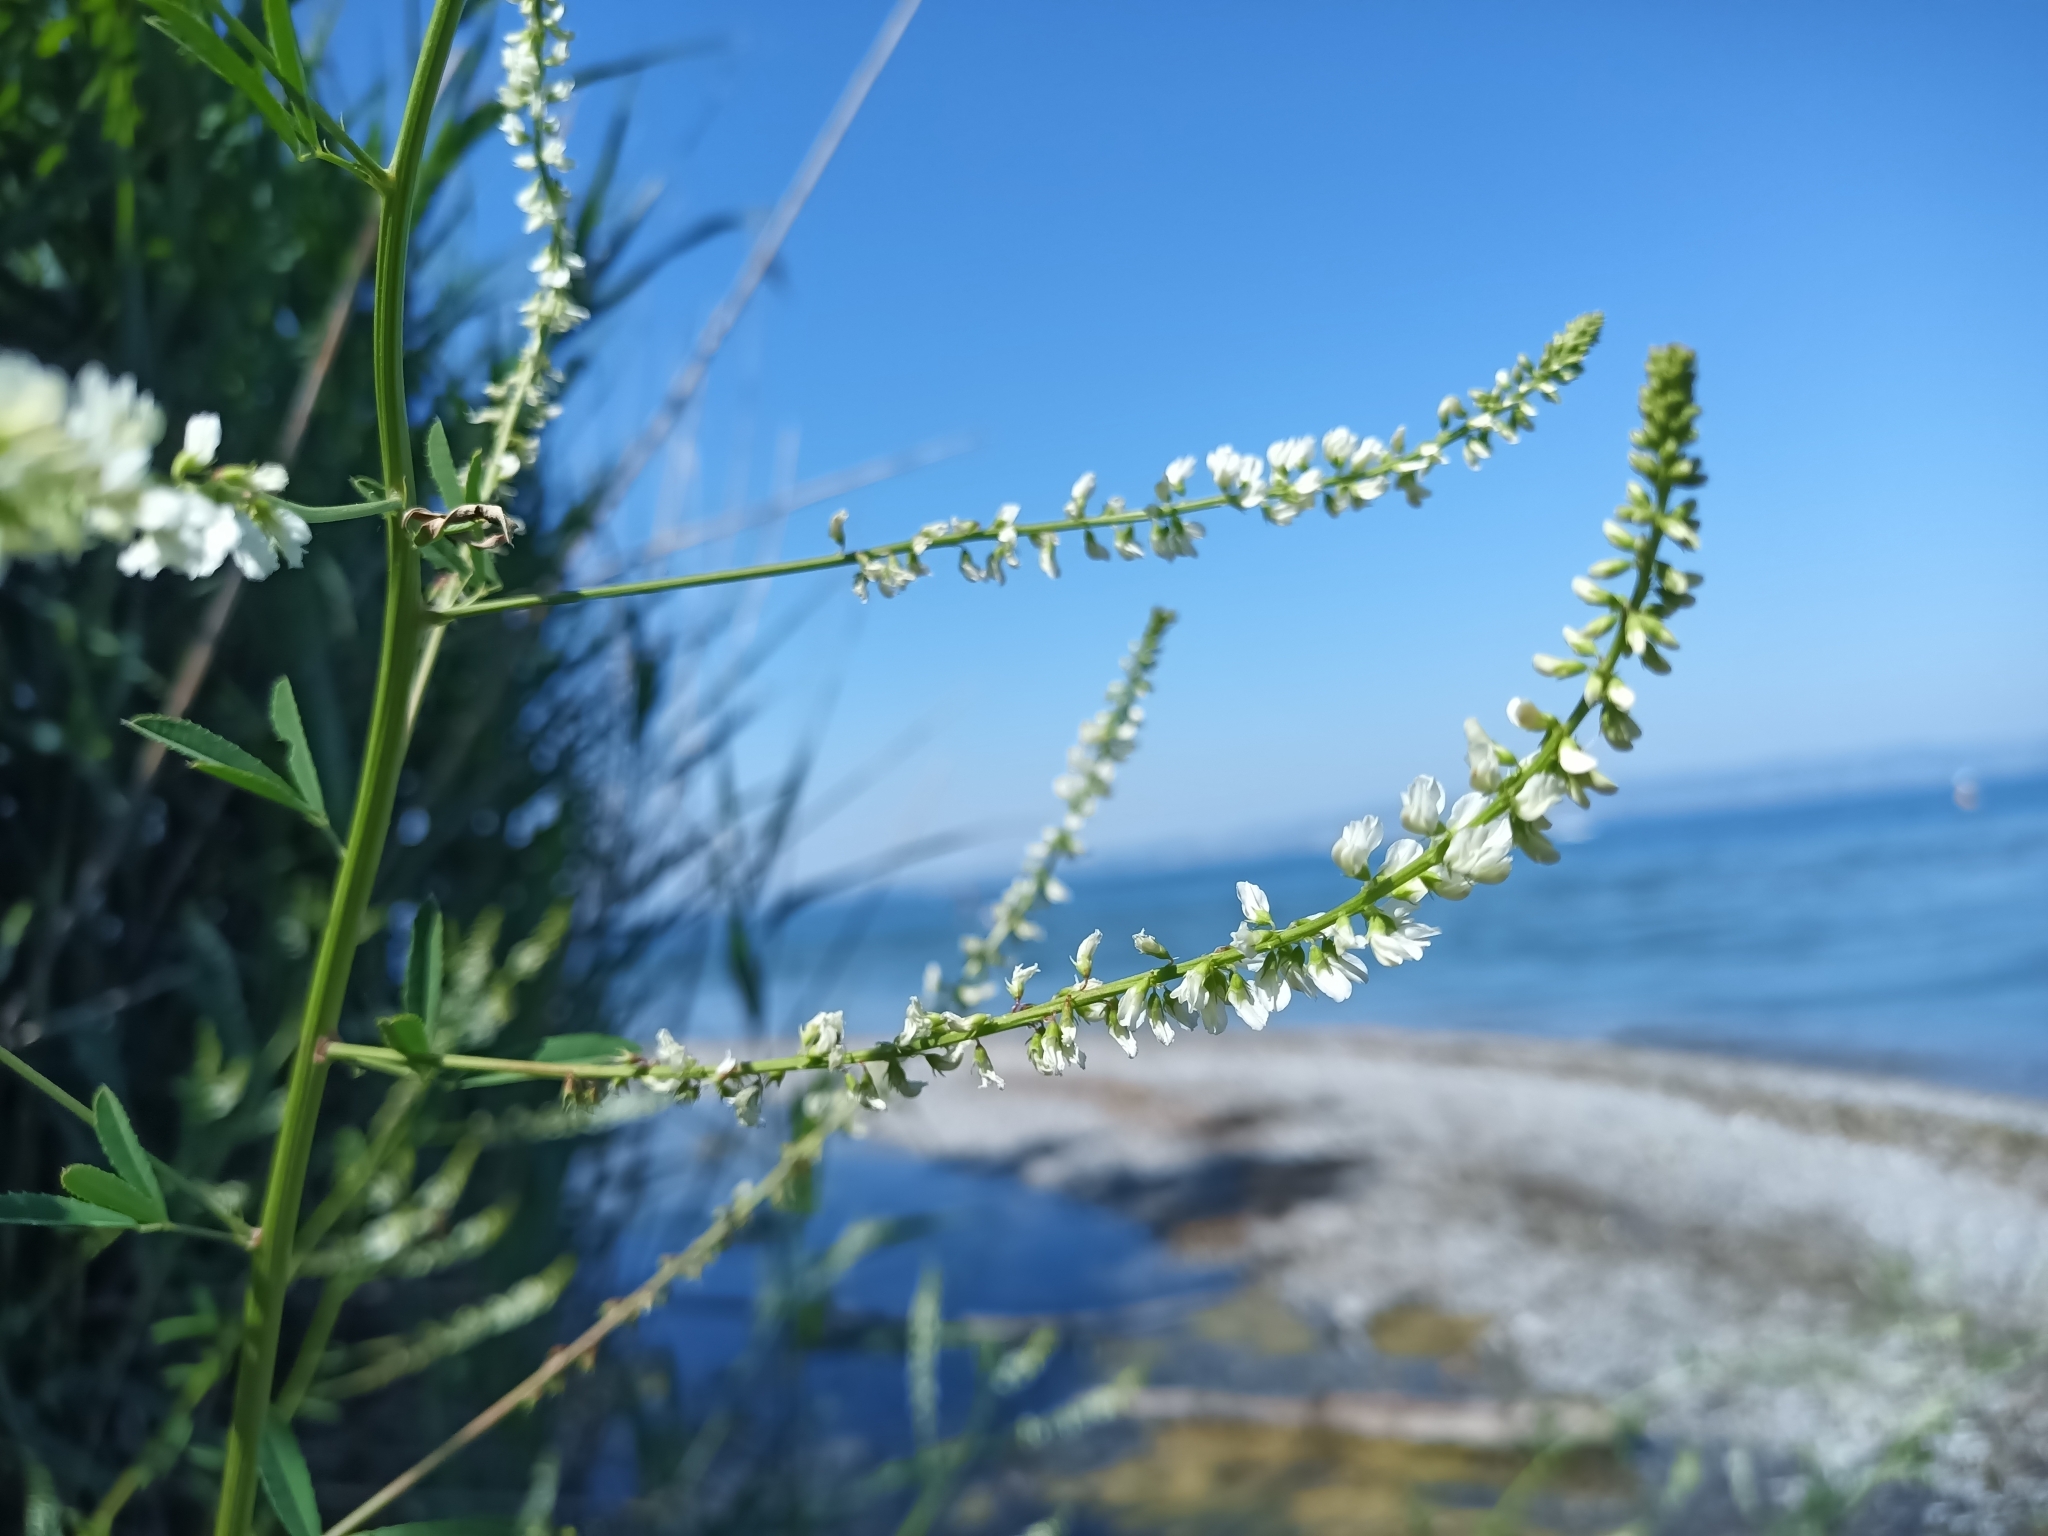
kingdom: Plantae
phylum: Tracheophyta
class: Magnoliopsida
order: Fabales
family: Fabaceae
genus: Melilotus
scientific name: Melilotus albus
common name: White melilot
